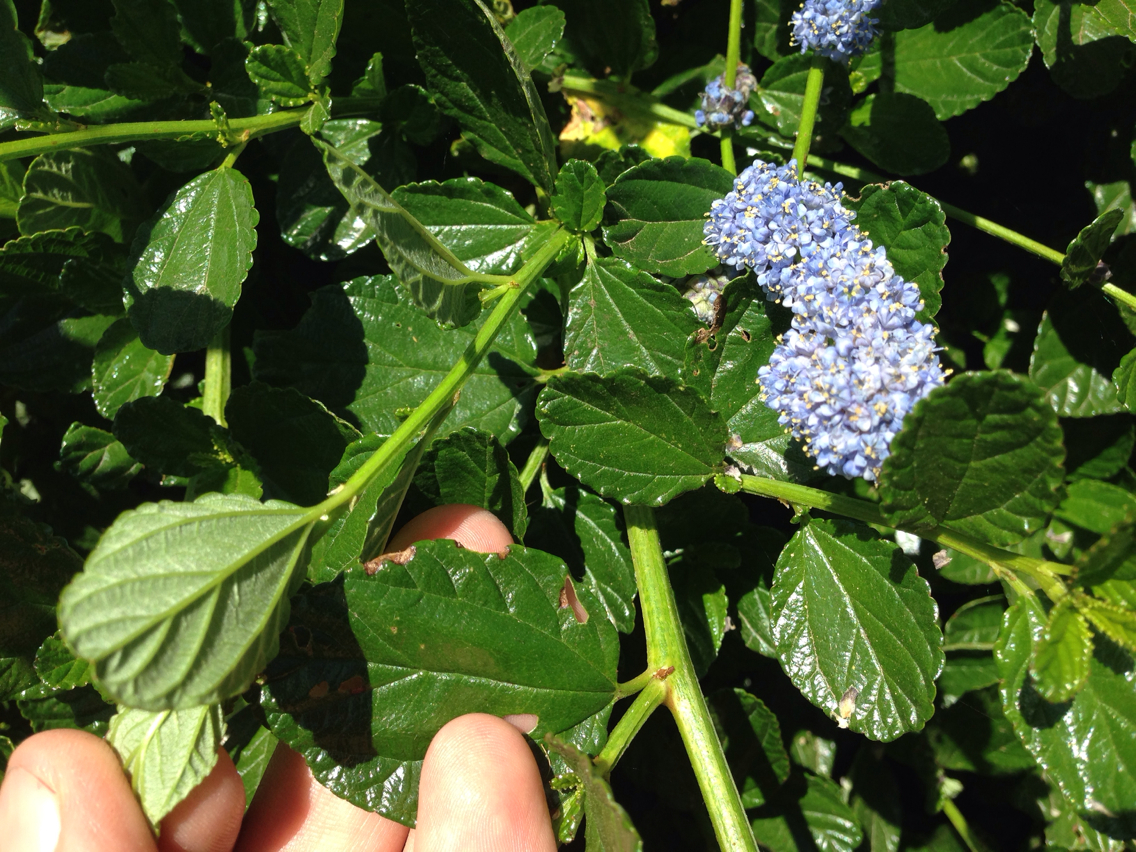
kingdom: Plantae
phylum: Tracheophyta
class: Magnoliopsida
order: Rosales
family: Rhamnaceae
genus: Ceanothus
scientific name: Ceanothus thyrsiflorus
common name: California-lilac
